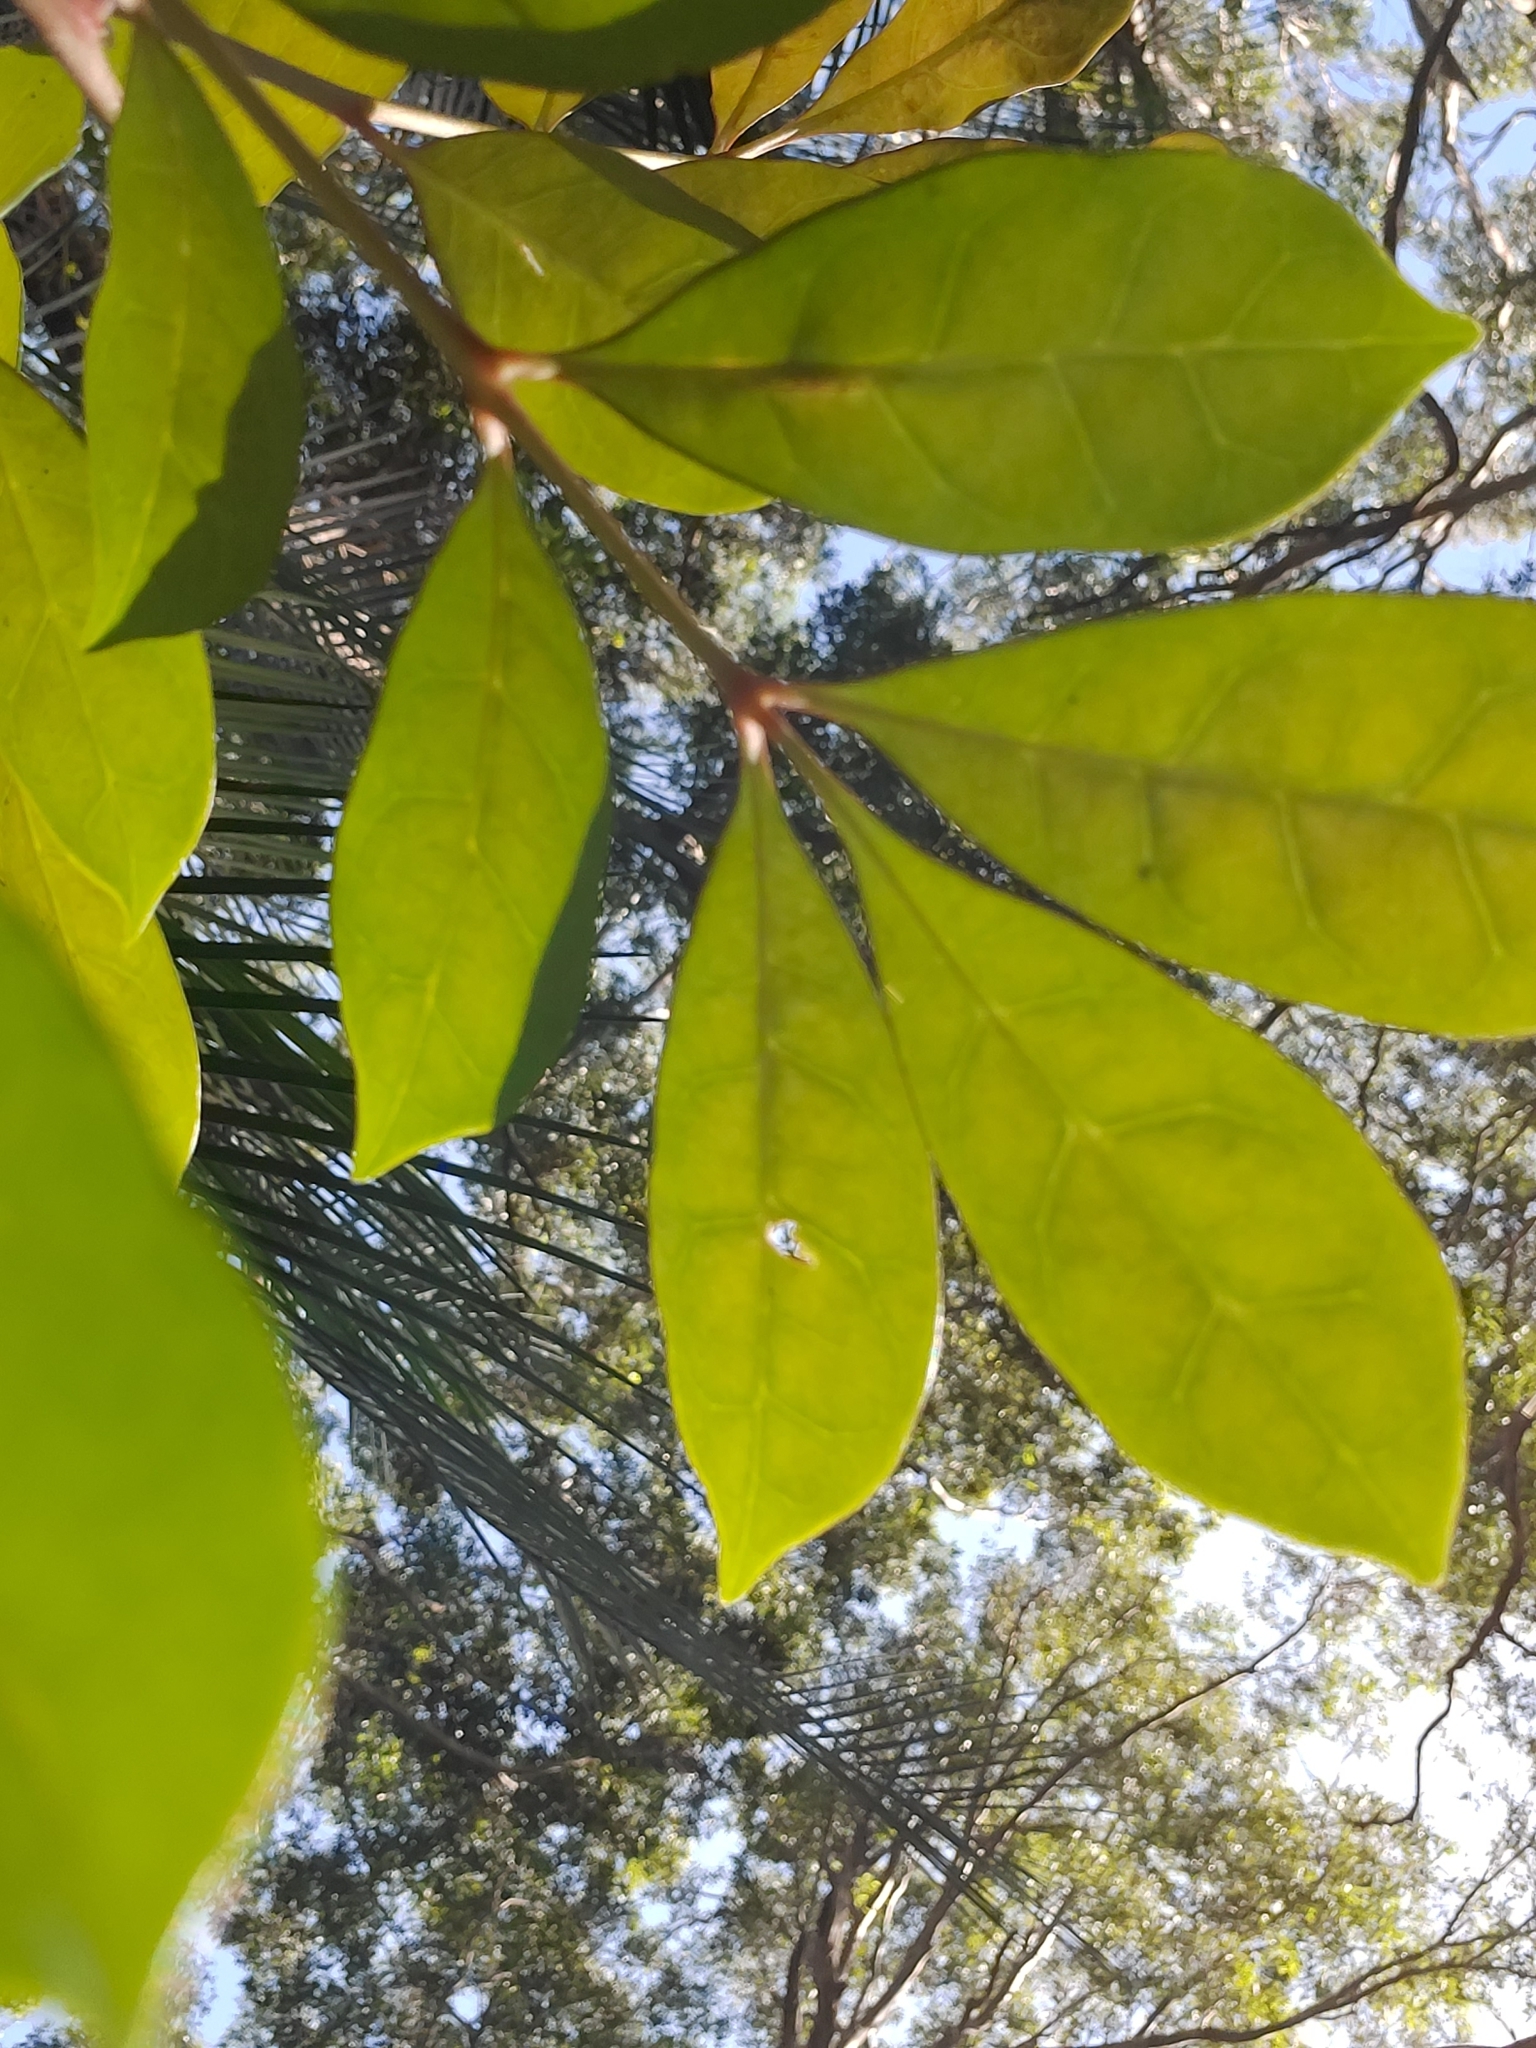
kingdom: Plantae
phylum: Tracheophyta
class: Magnoliopsida
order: Sapindales
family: Meliaceae
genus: Synoum
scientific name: Synoum glandulosum
